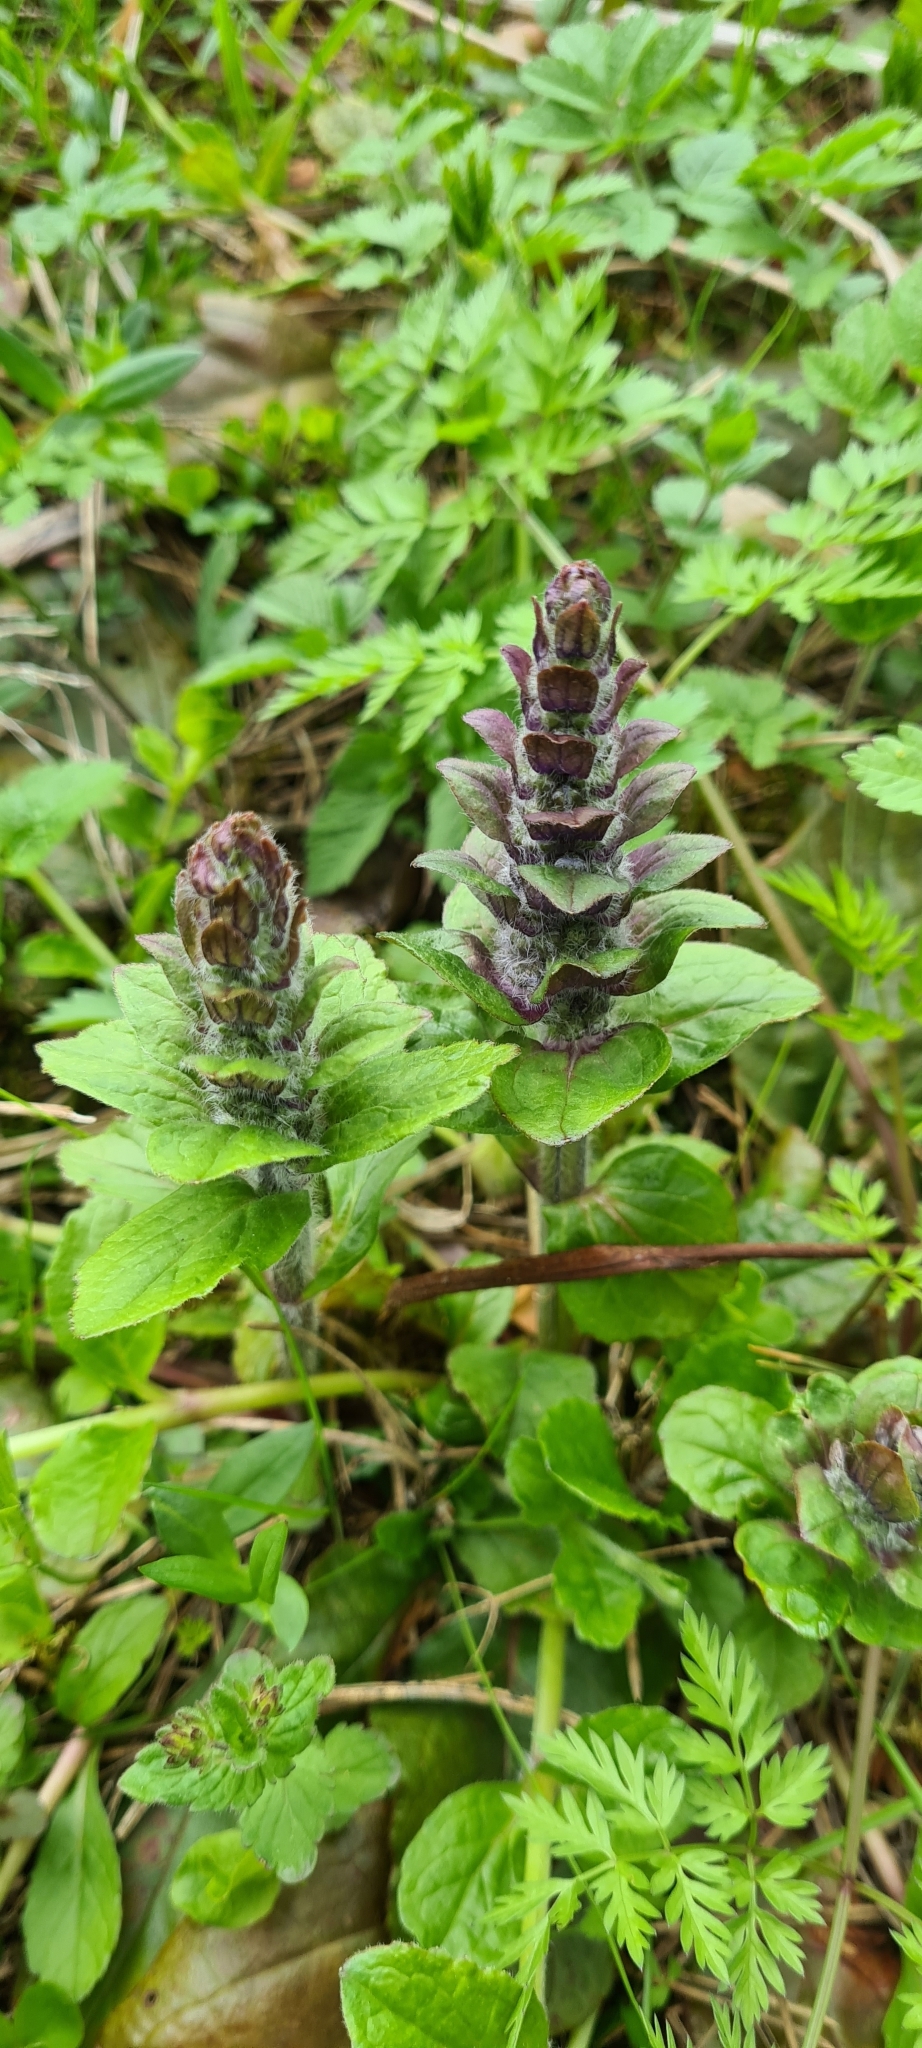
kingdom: Plantae
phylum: Tracheophyta
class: Magnoliopsida
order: Lamiales
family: Lamiaceae
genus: Ajuga
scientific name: Ajuga reptans
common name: Bugle
